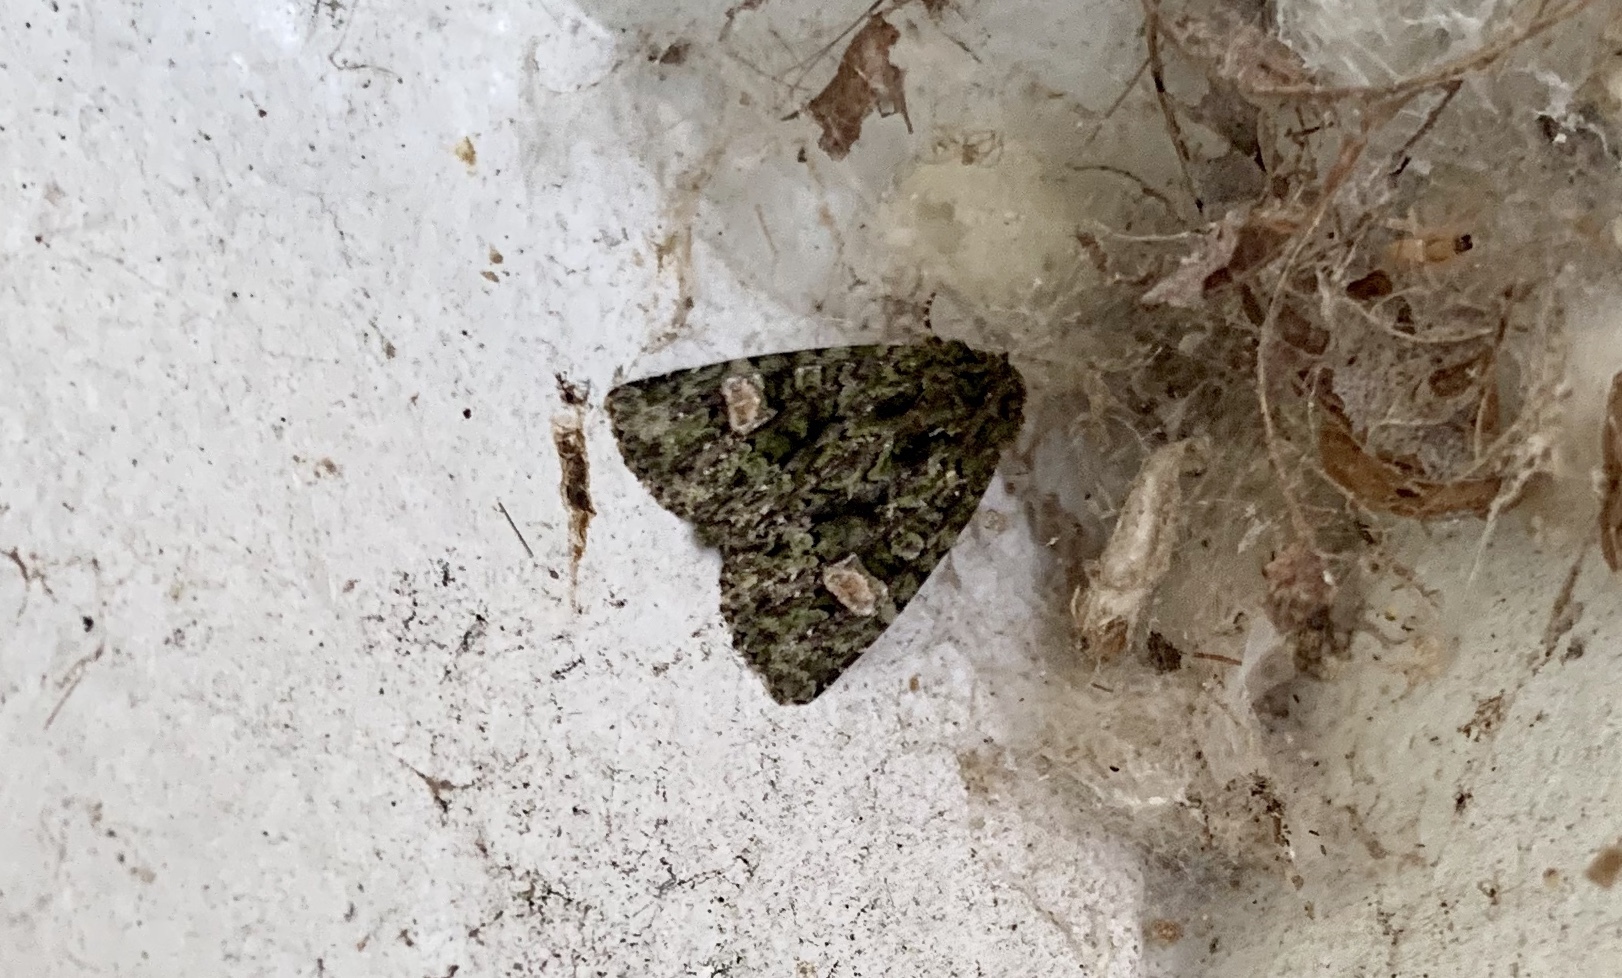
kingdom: Animalia
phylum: Arthropoda
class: Insecta
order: Lepidoptera
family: Noctuidae
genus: Phosphila
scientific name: Phosphila miselioides
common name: Spotted phosphila moth
